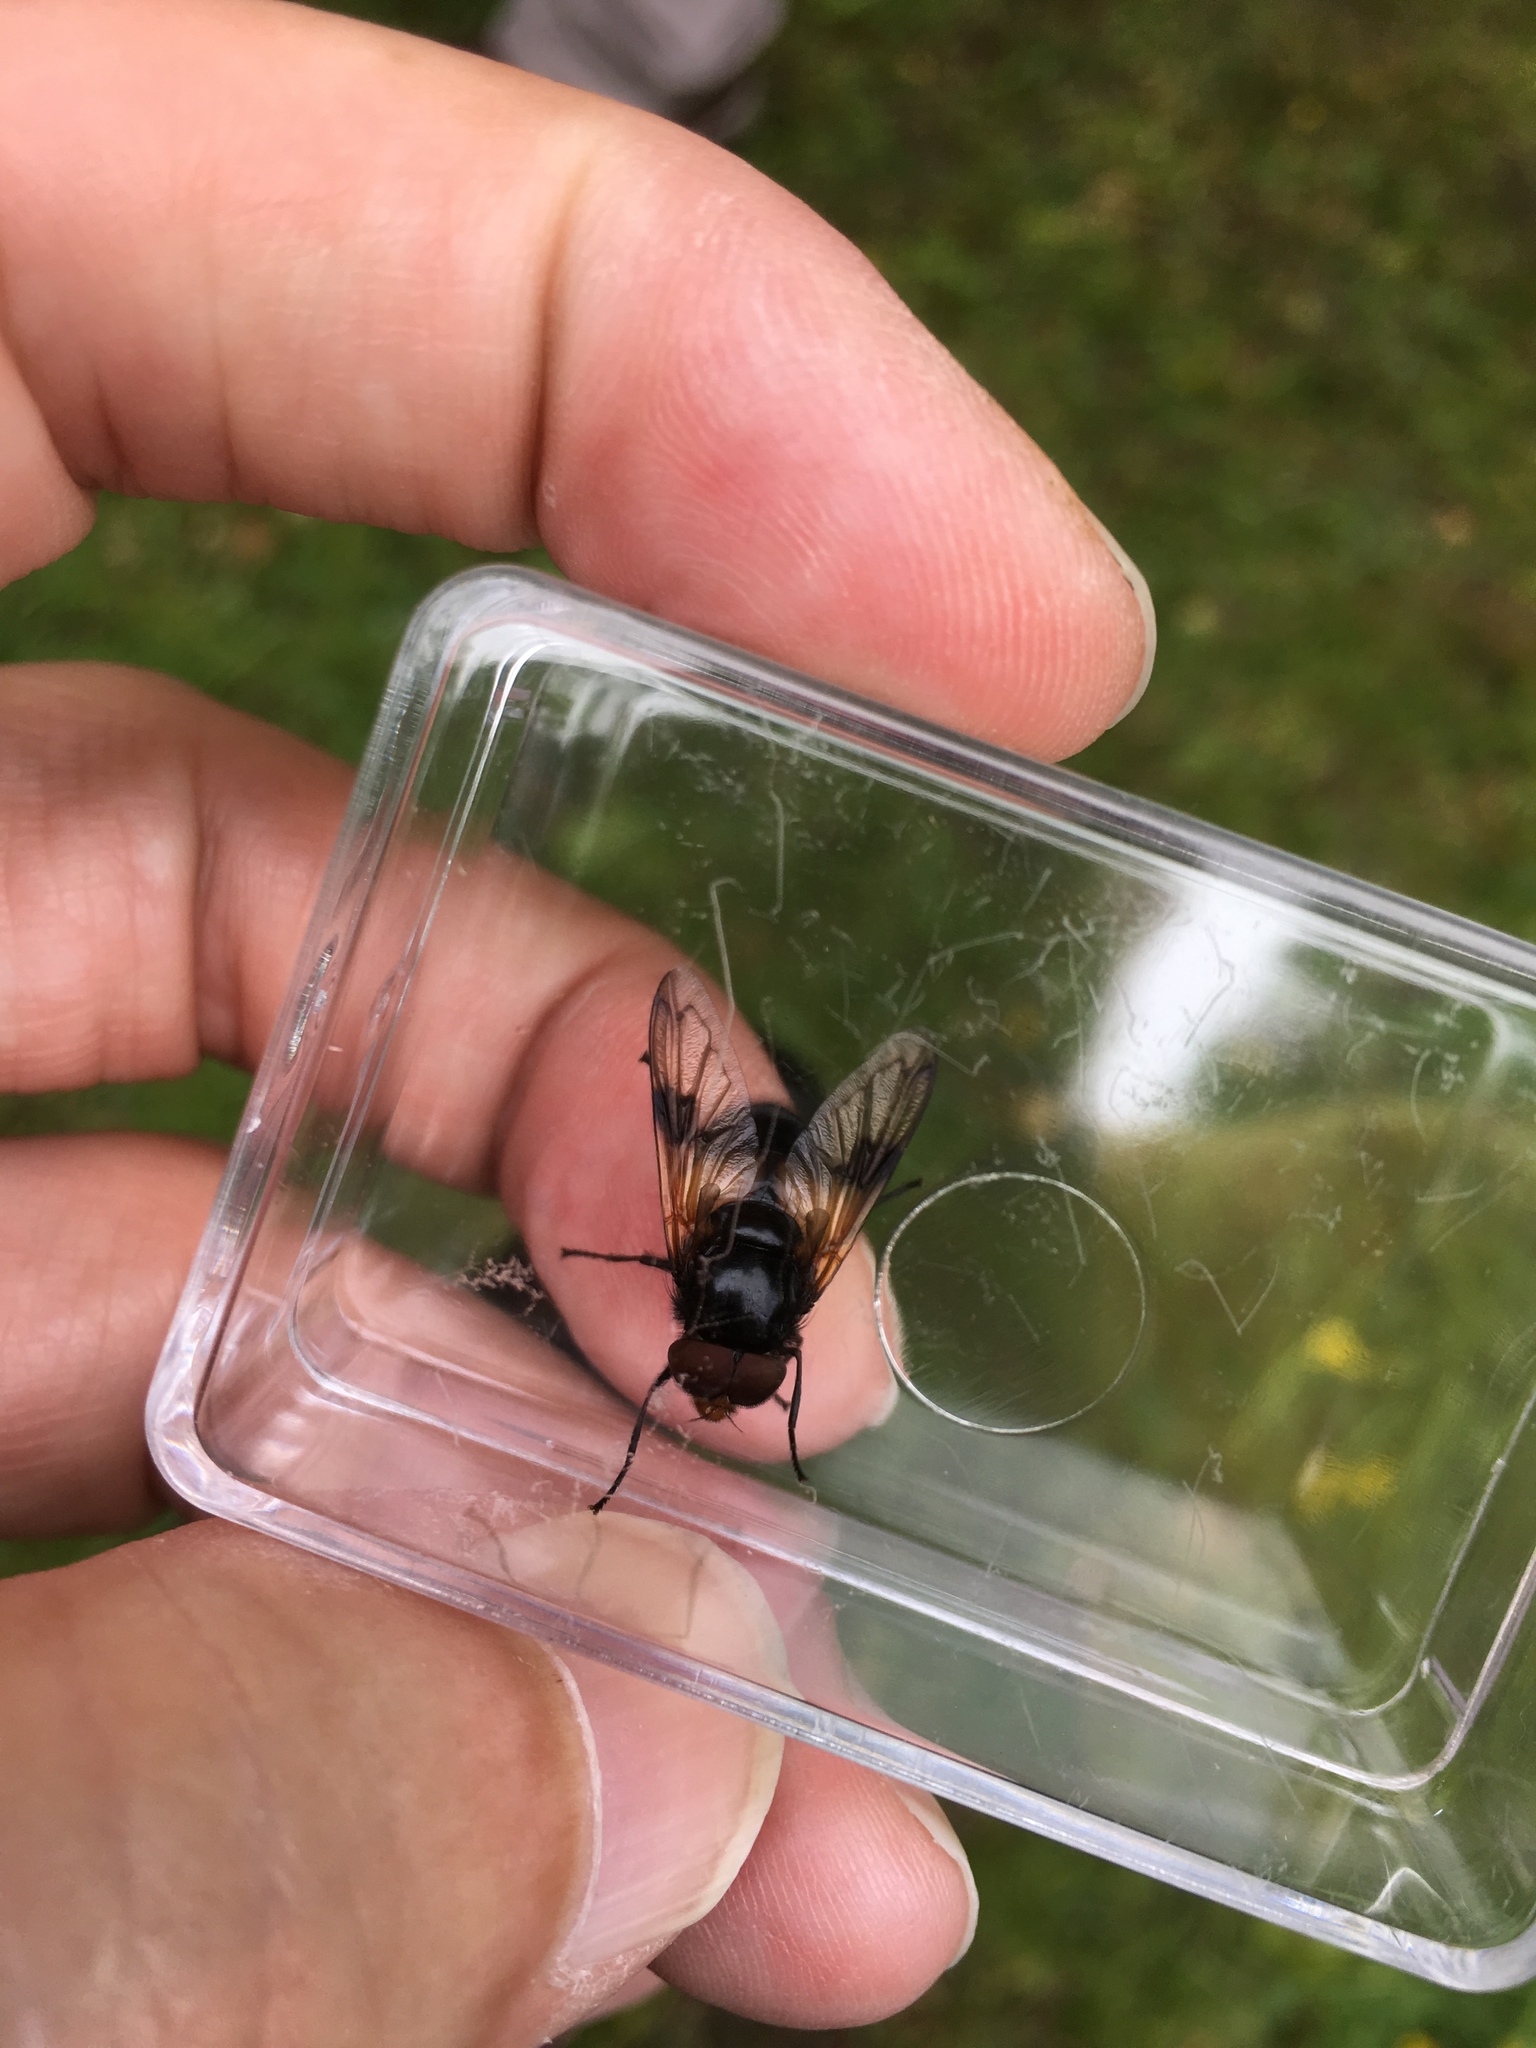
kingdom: Animalia
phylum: Arthropoda
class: Insecta
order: Diptera
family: Syrphidae
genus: Volucella
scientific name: Volucella pellucens
